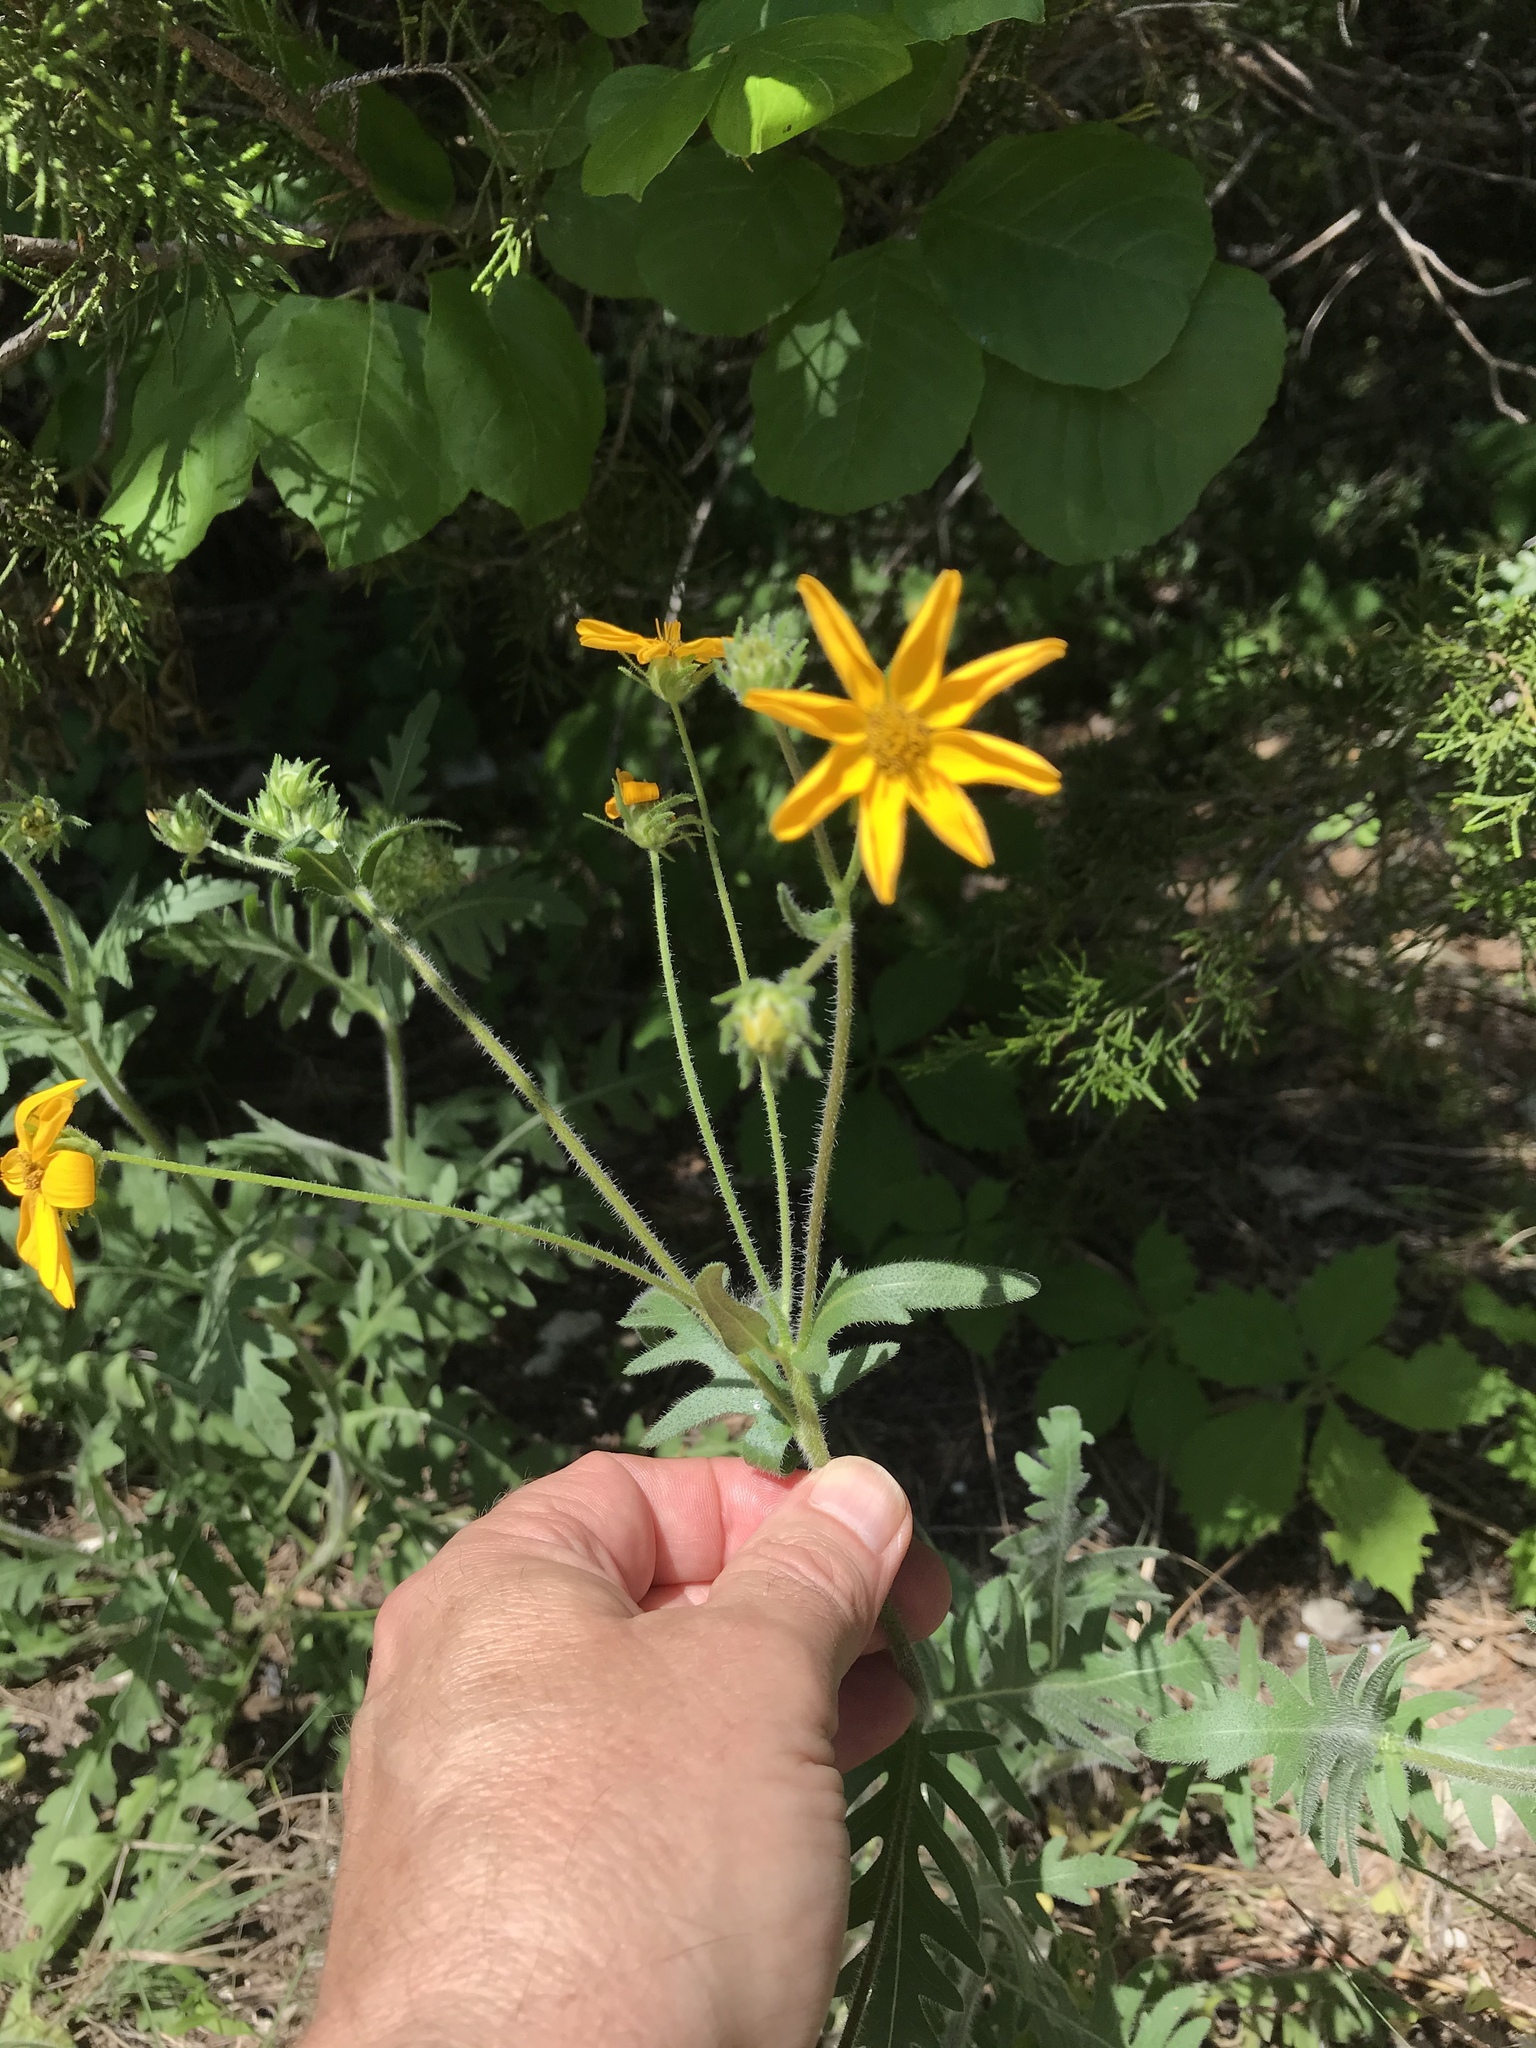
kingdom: Plantae
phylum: Tracheophyta
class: Magnoliopsida
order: Asterales
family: Asteraceae
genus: Engelmannia
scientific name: Engelmannia peristenia
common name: Engelmann's daisy
